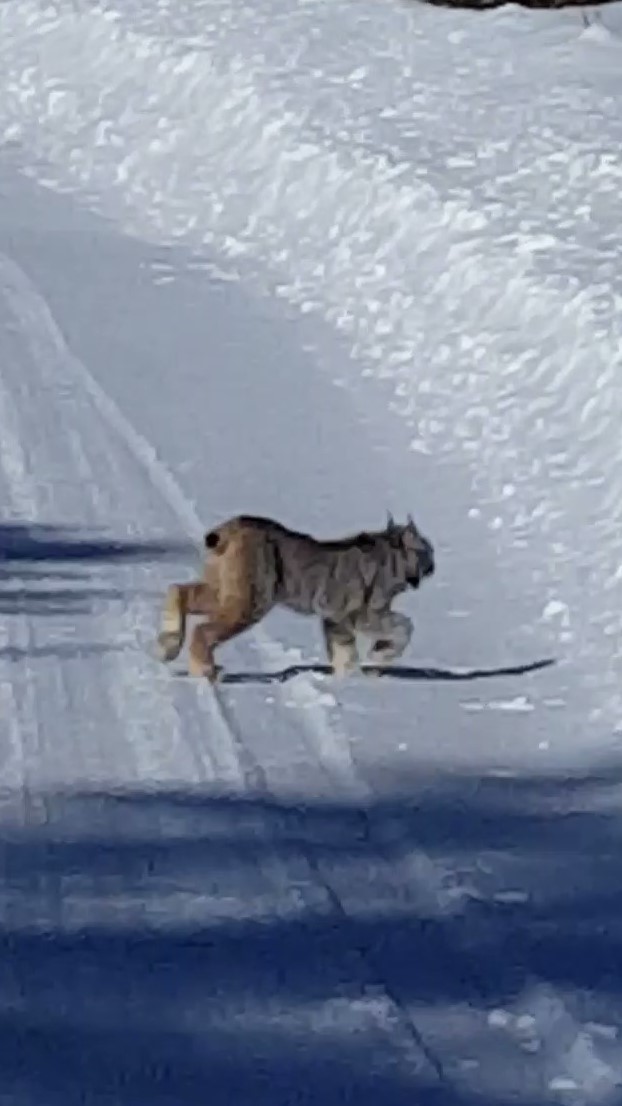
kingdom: Animalia
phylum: Chordata
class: Mammalia
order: Carnivora
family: Felidae
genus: Lynx
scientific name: Lynx canadensis
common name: Canadian lynx
